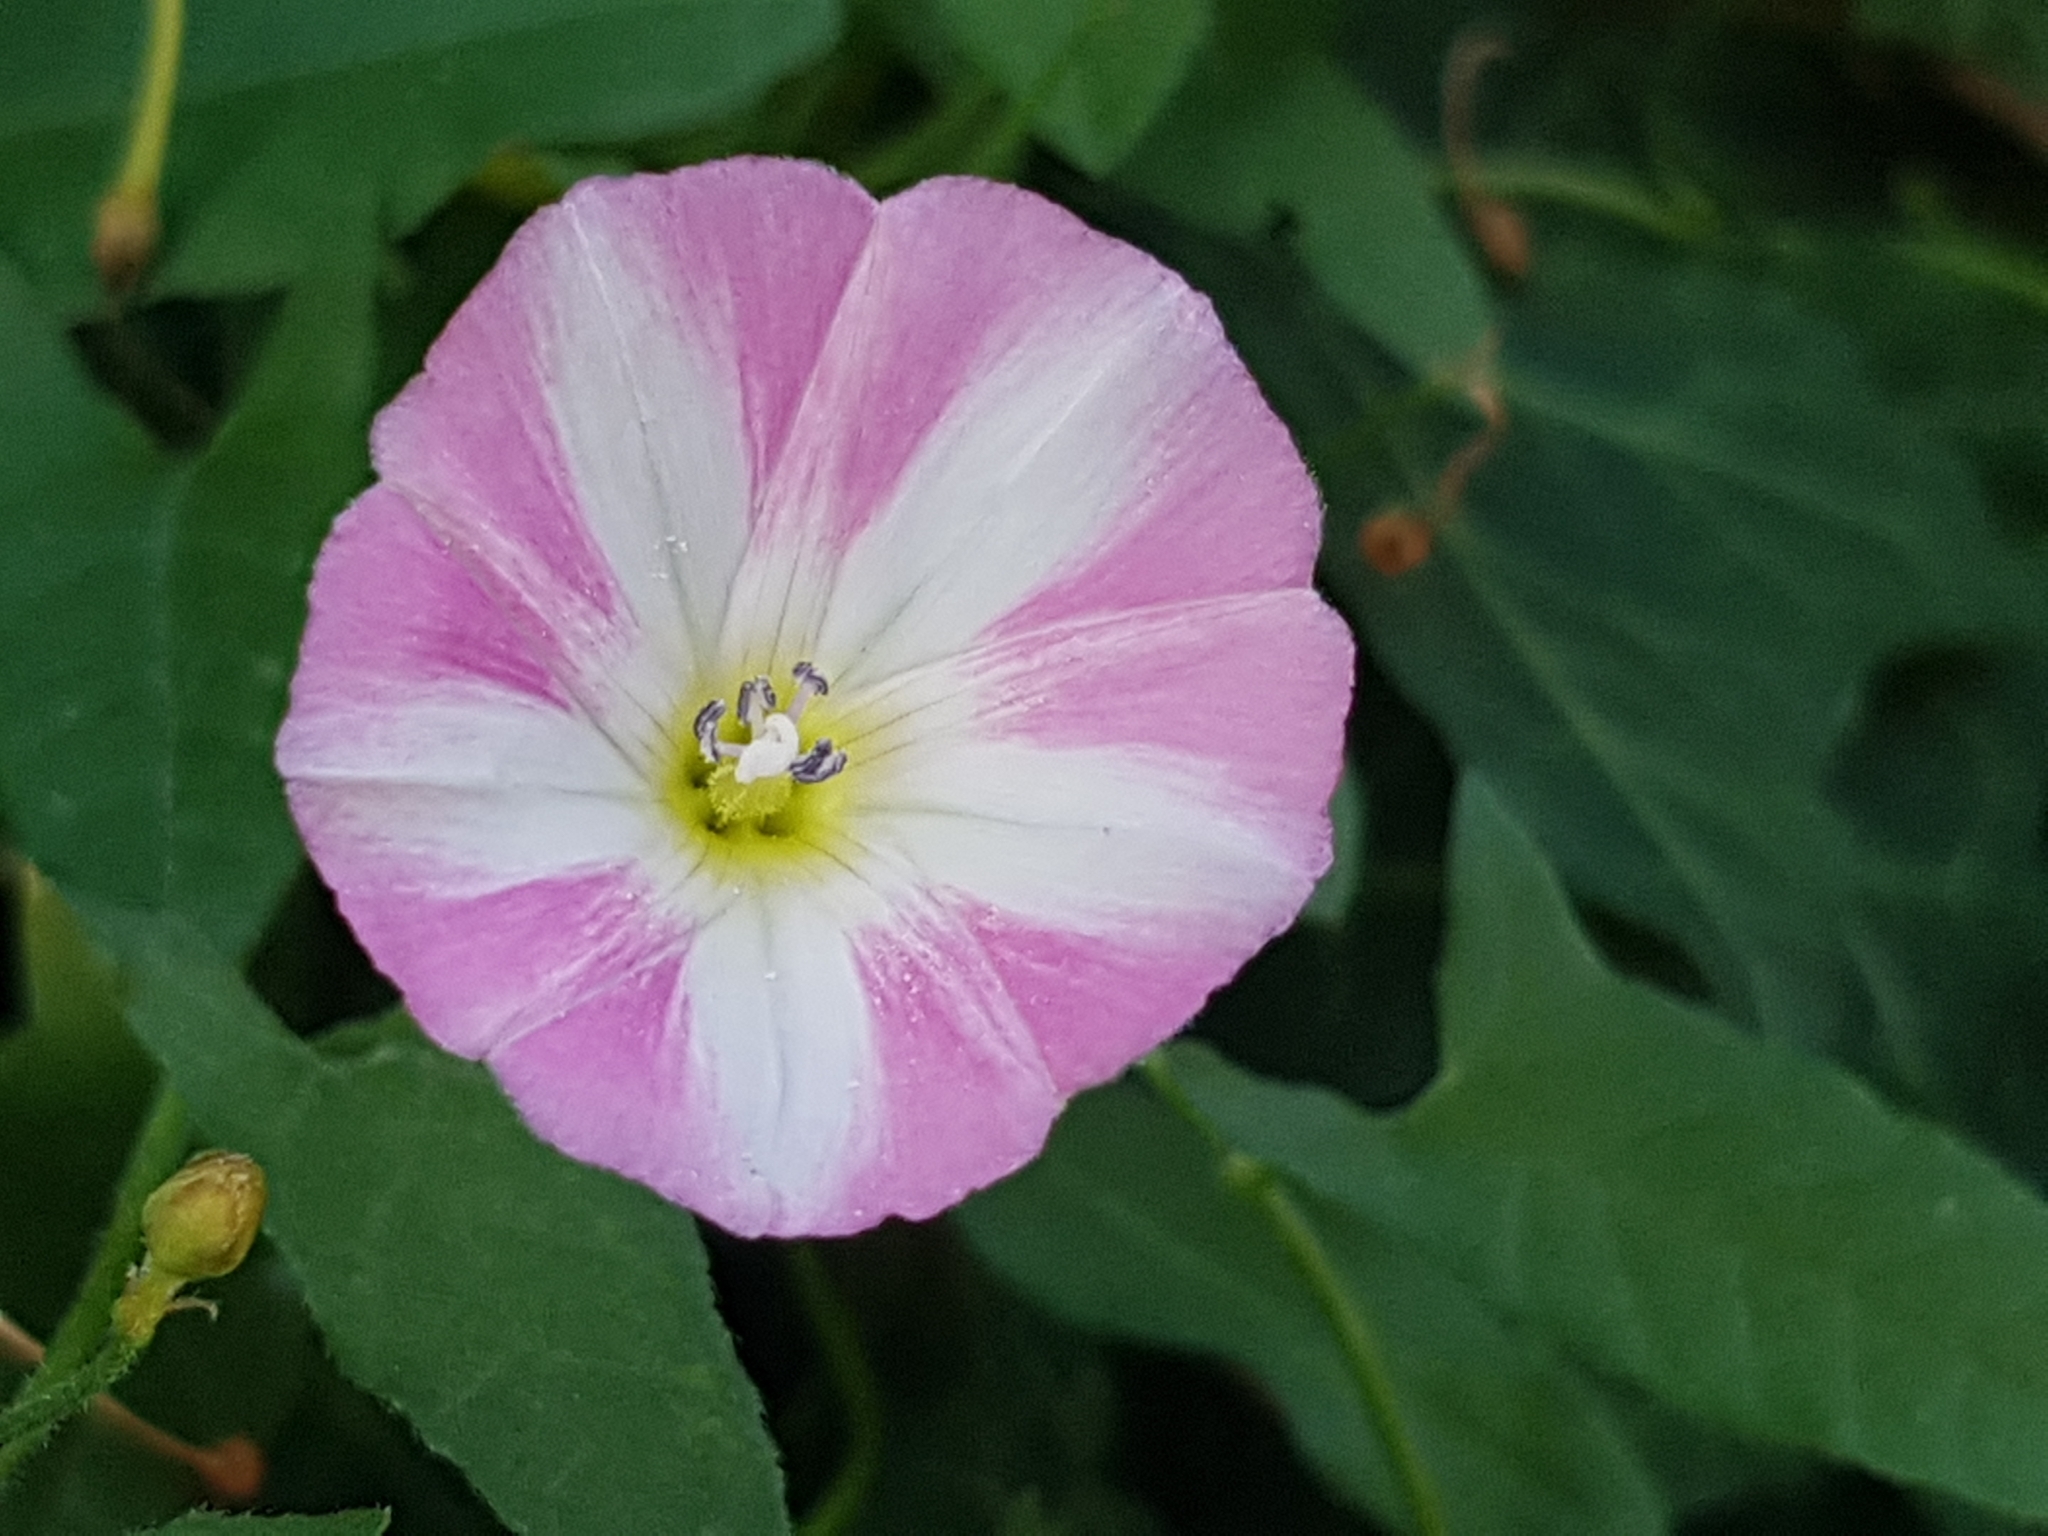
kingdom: Plantae
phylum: Tracheophyta
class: Magnoliopsida
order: Solanales
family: Convolvulaceae
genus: Convolvulus
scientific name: Convolvulus arvensis
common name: Field bindweed
